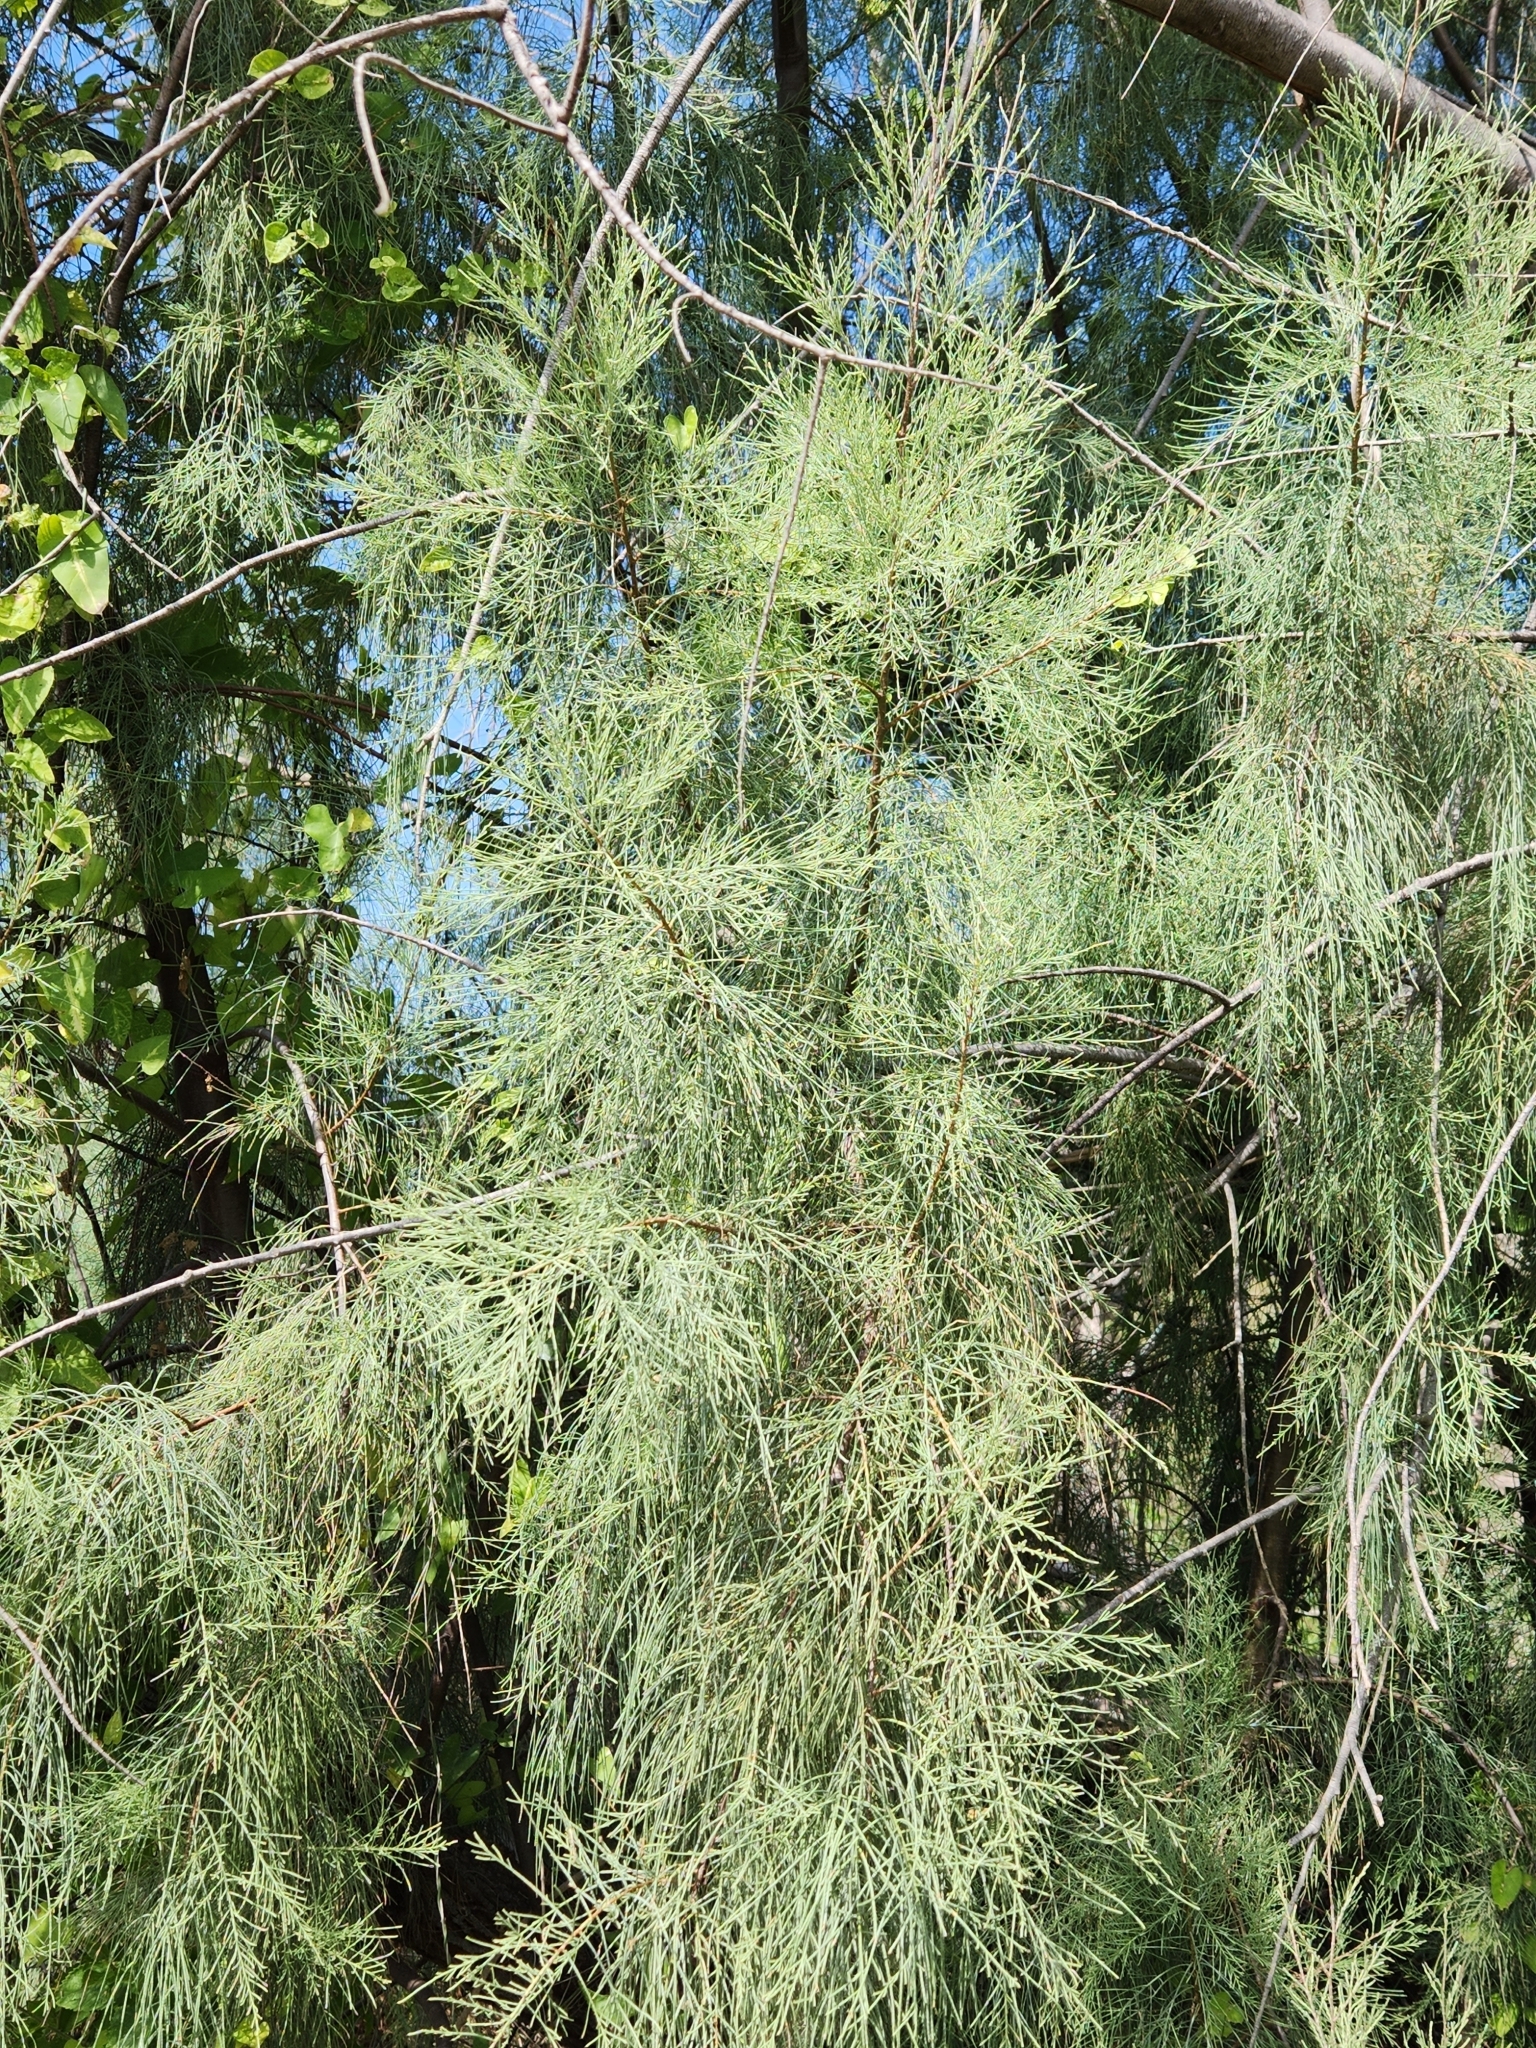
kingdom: Plantae
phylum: Tracheophyta
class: Magnoliopsida
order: Caryophyllales
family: Tamaricaceae
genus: Tamarix
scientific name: Tamarix ramosissima
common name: Pink tamarisk
